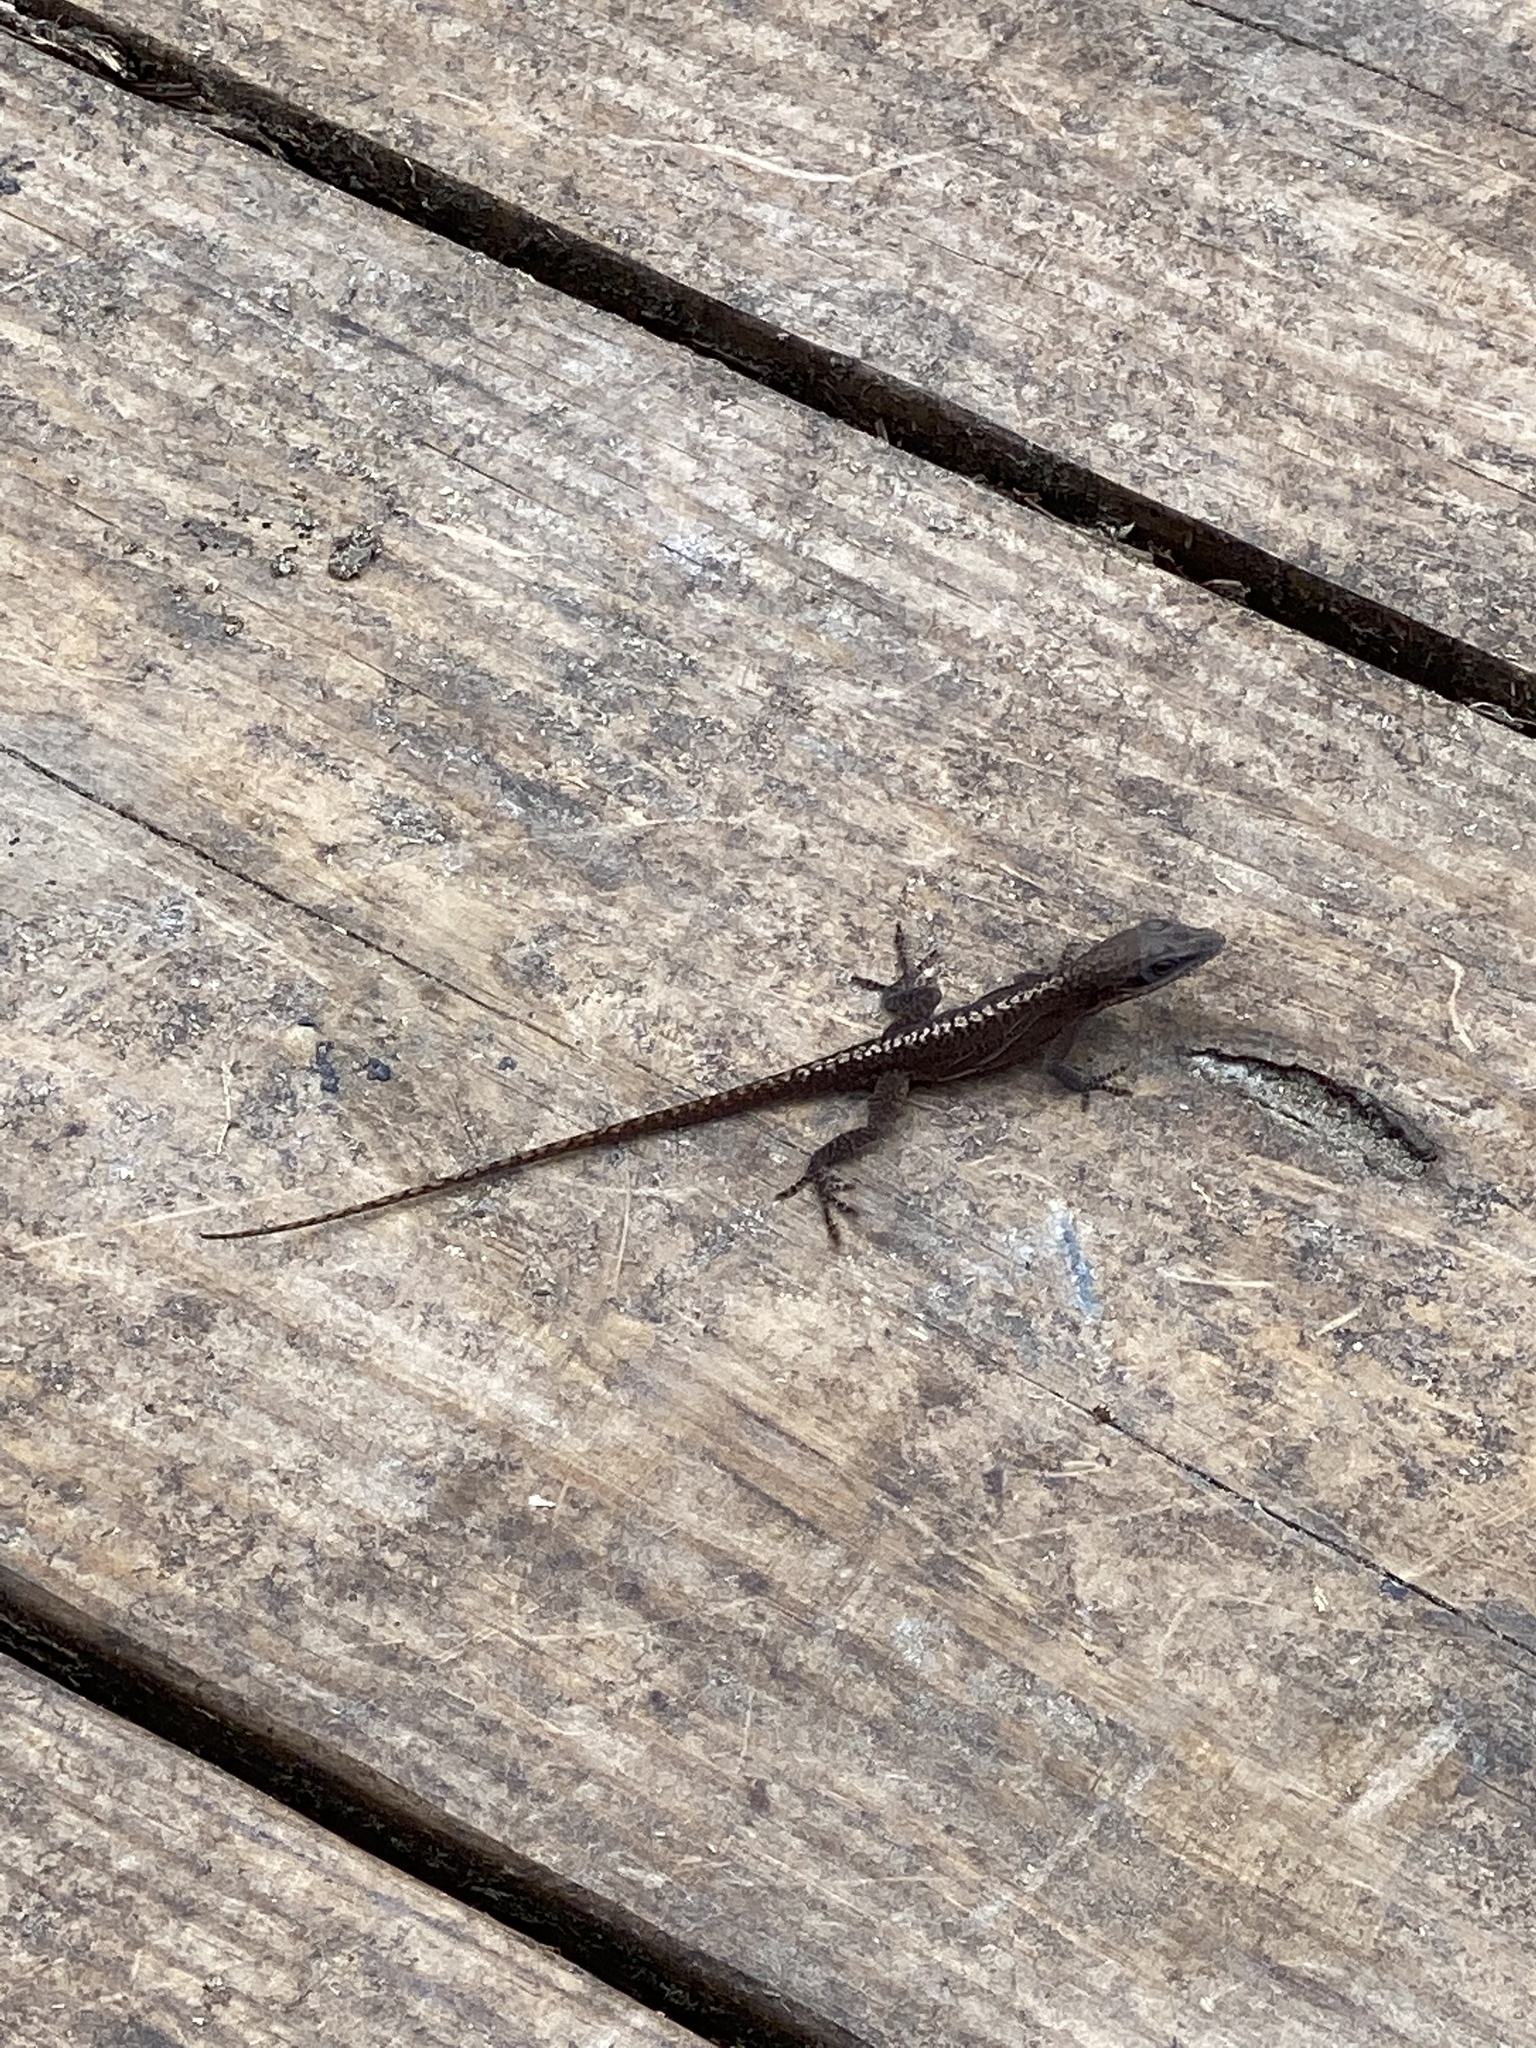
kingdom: Animalia
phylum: Chordata
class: Squamata
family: Dactyloidae
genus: Anolis
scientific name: Anolis carolinensis
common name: Green anole
